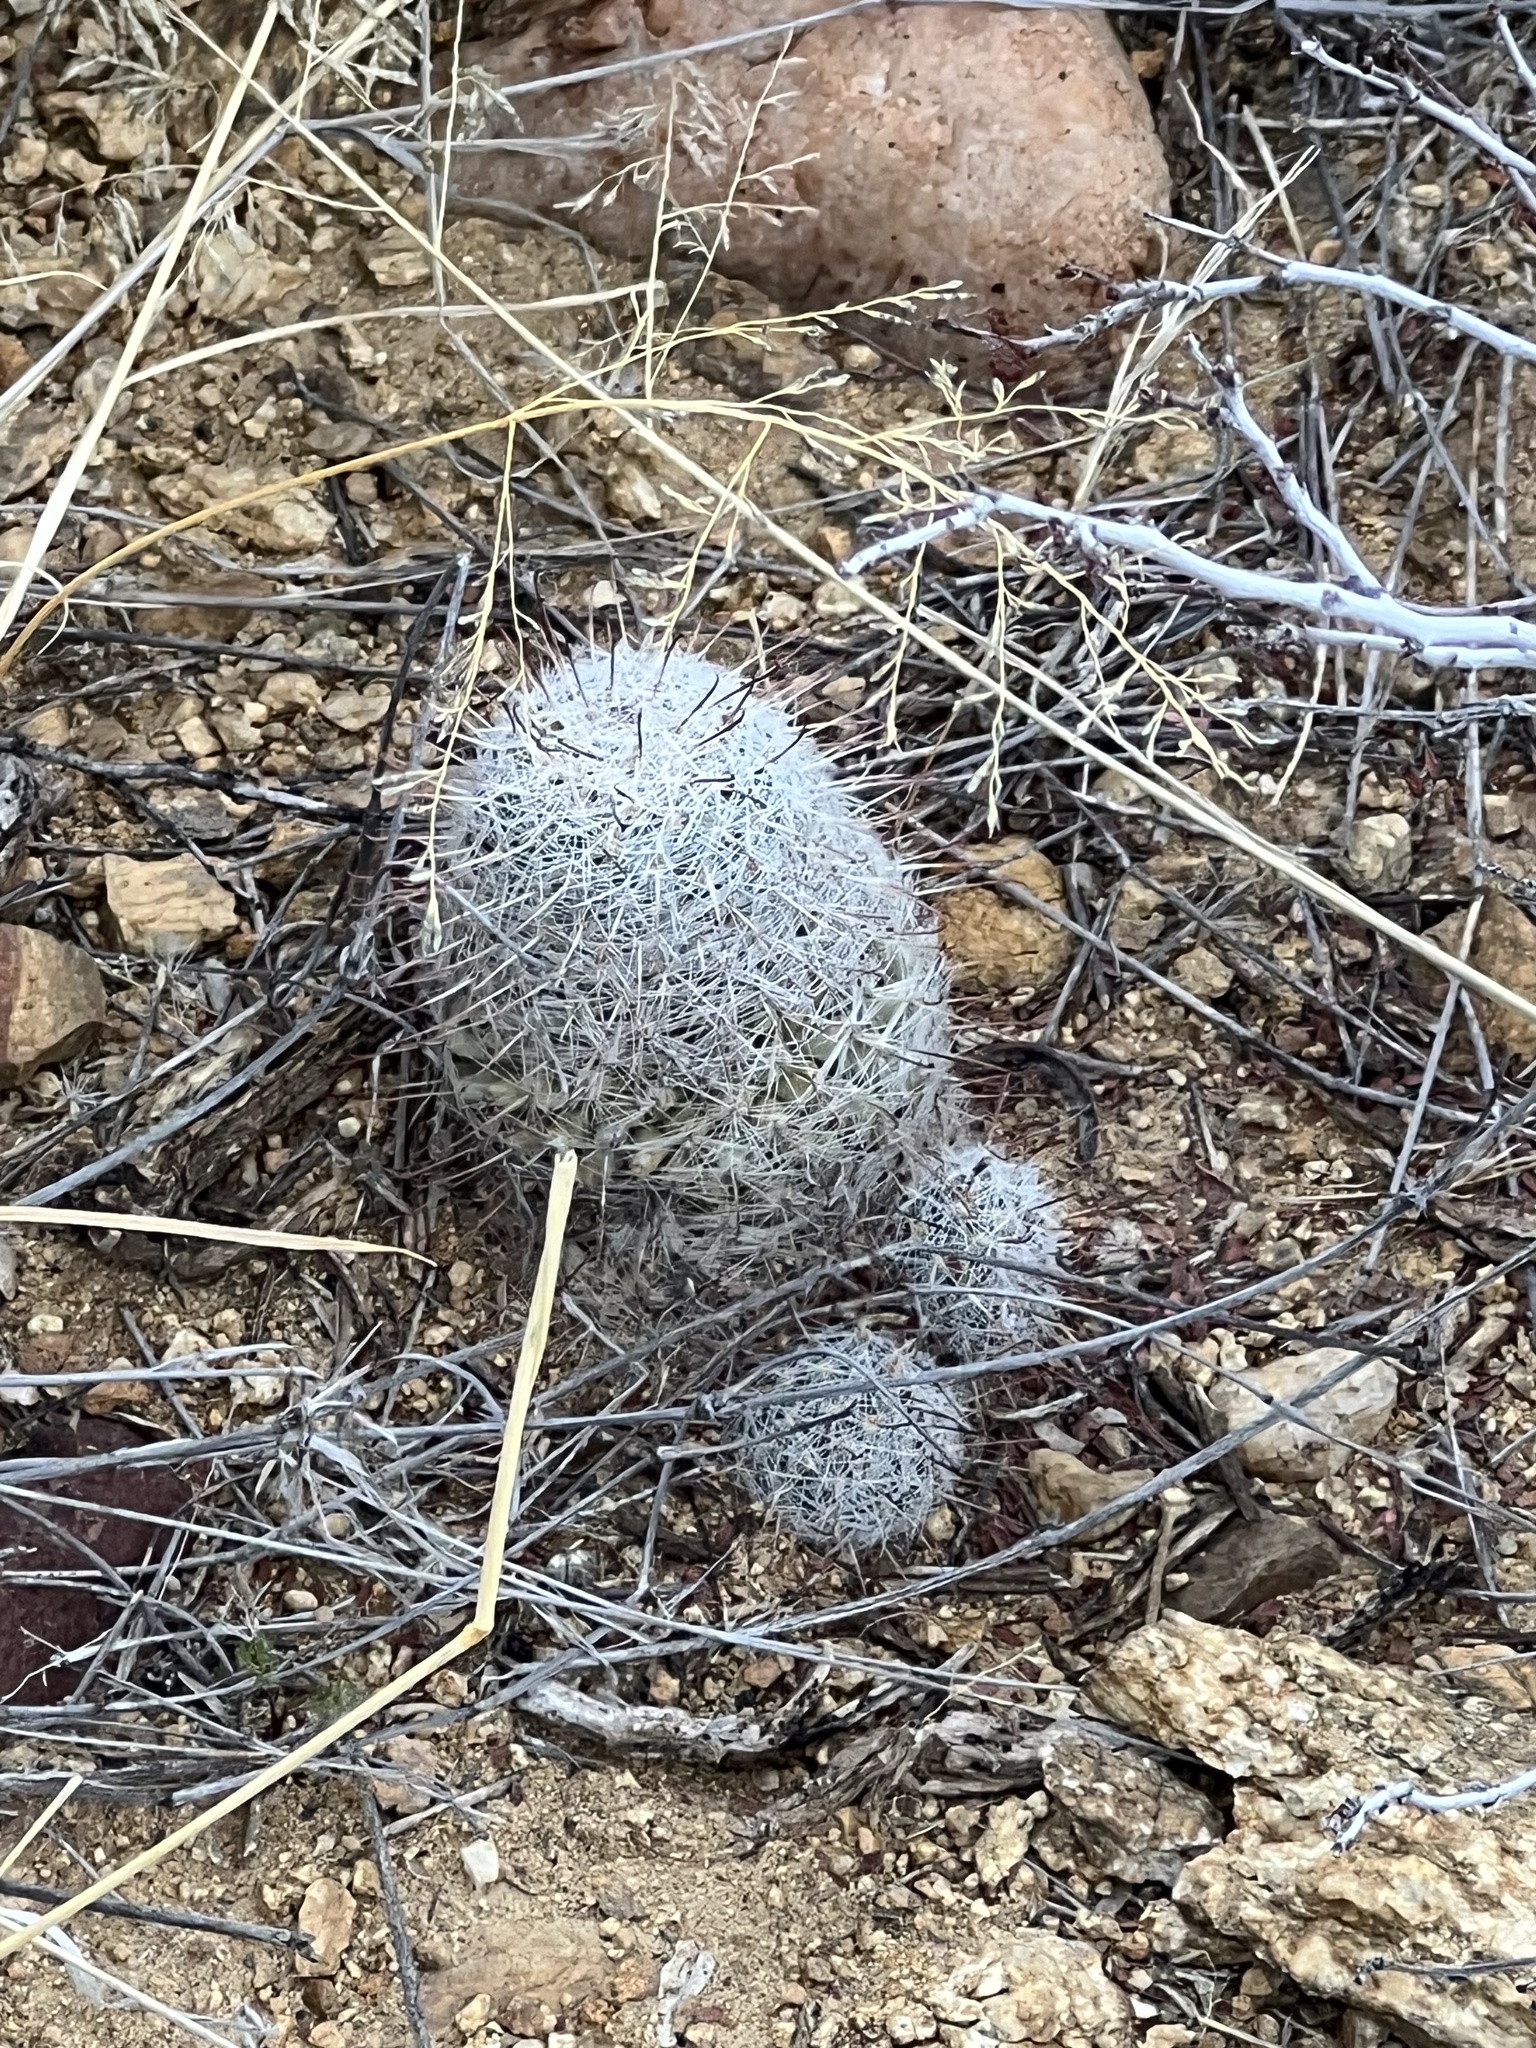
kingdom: Plantae
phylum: Tracheophyta
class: Magnoliopsida
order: Caryophyllales
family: Cactaceae
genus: Cochemiea
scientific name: Cochemiea grahamii
